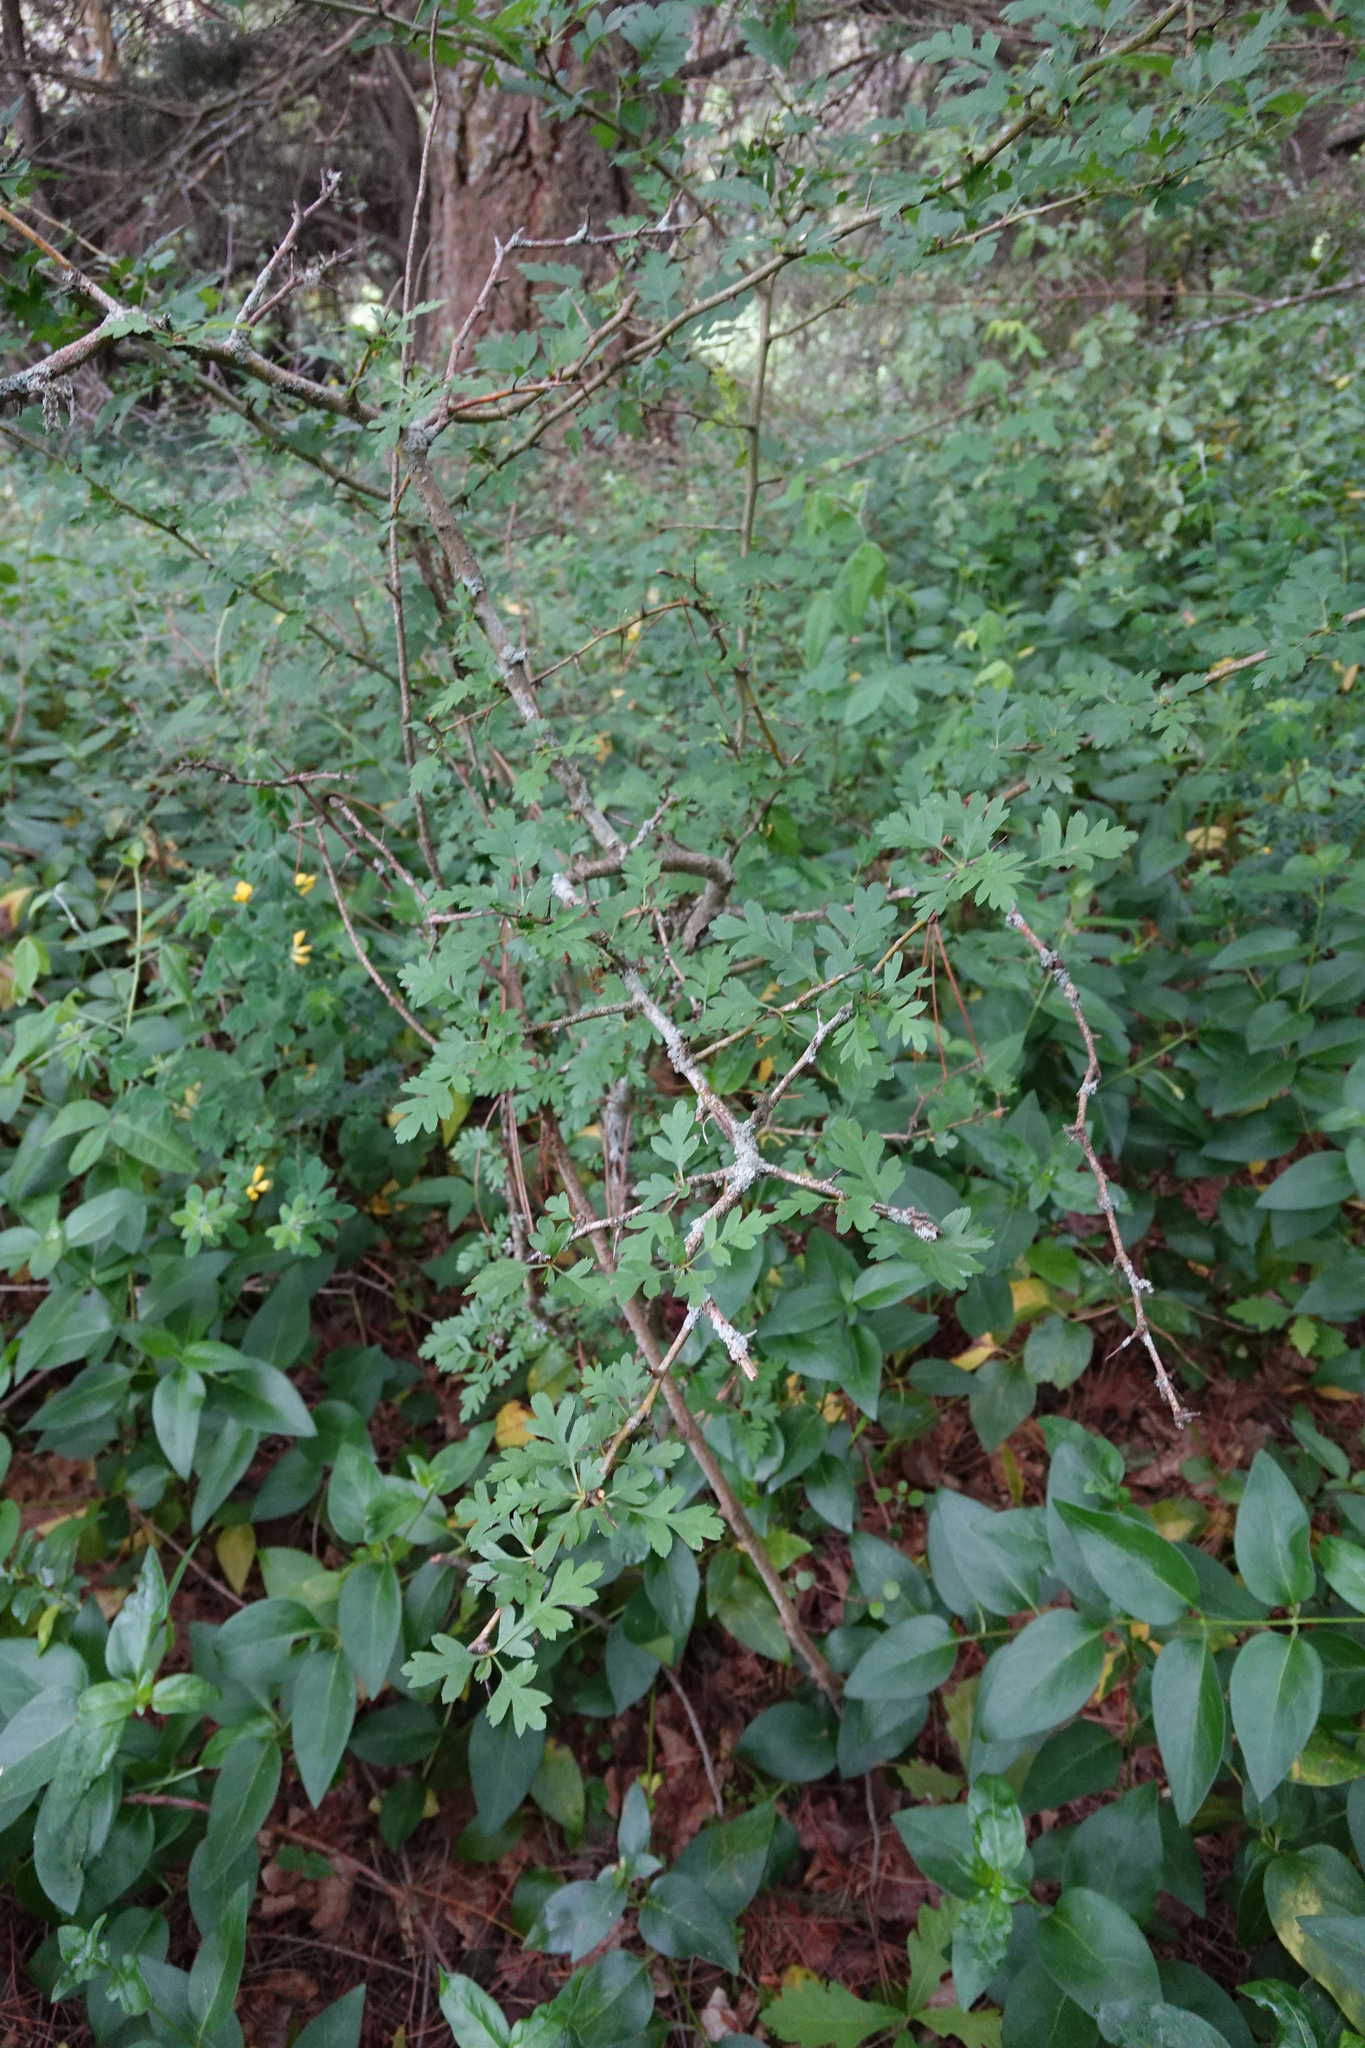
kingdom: Plantae
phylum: Tracheophyta
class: Magnoliopsida
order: Rosales
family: Rosaceae
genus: Crataegus
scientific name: Crataegus monogyna
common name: Hawthorn
